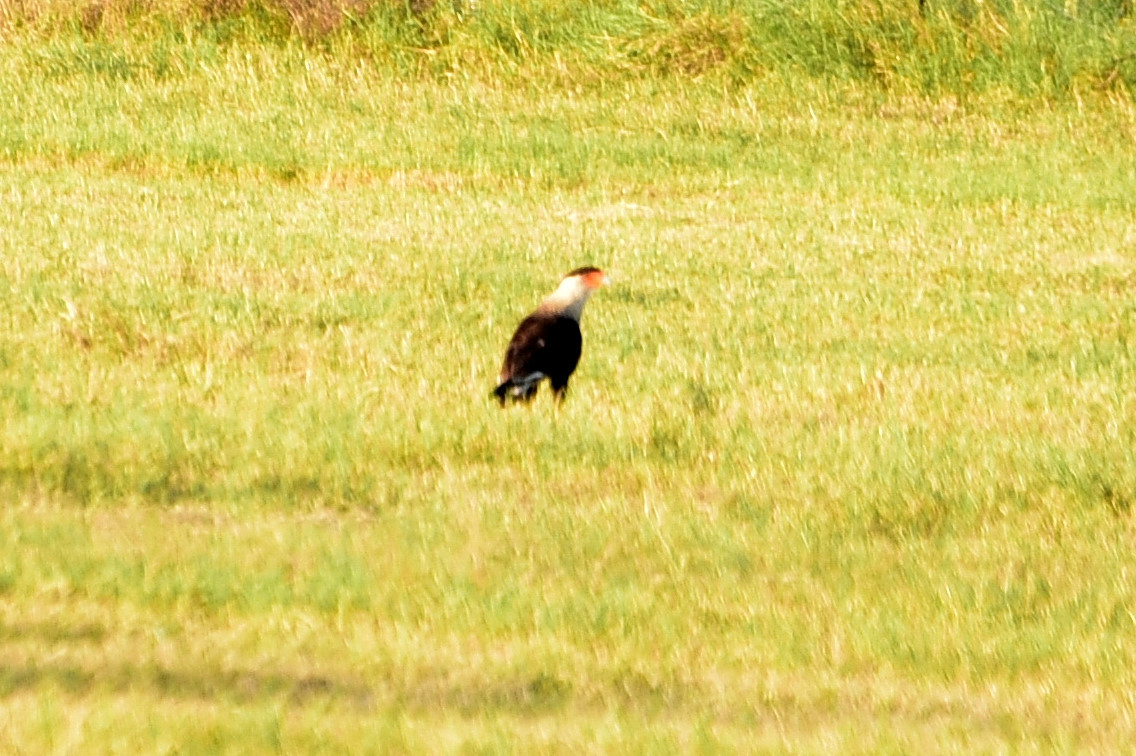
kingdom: Animalia
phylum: Chordata
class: Aves
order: Falconiformes
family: Falconidae
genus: Caracara
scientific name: Caracara plancus
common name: Southern caracara
